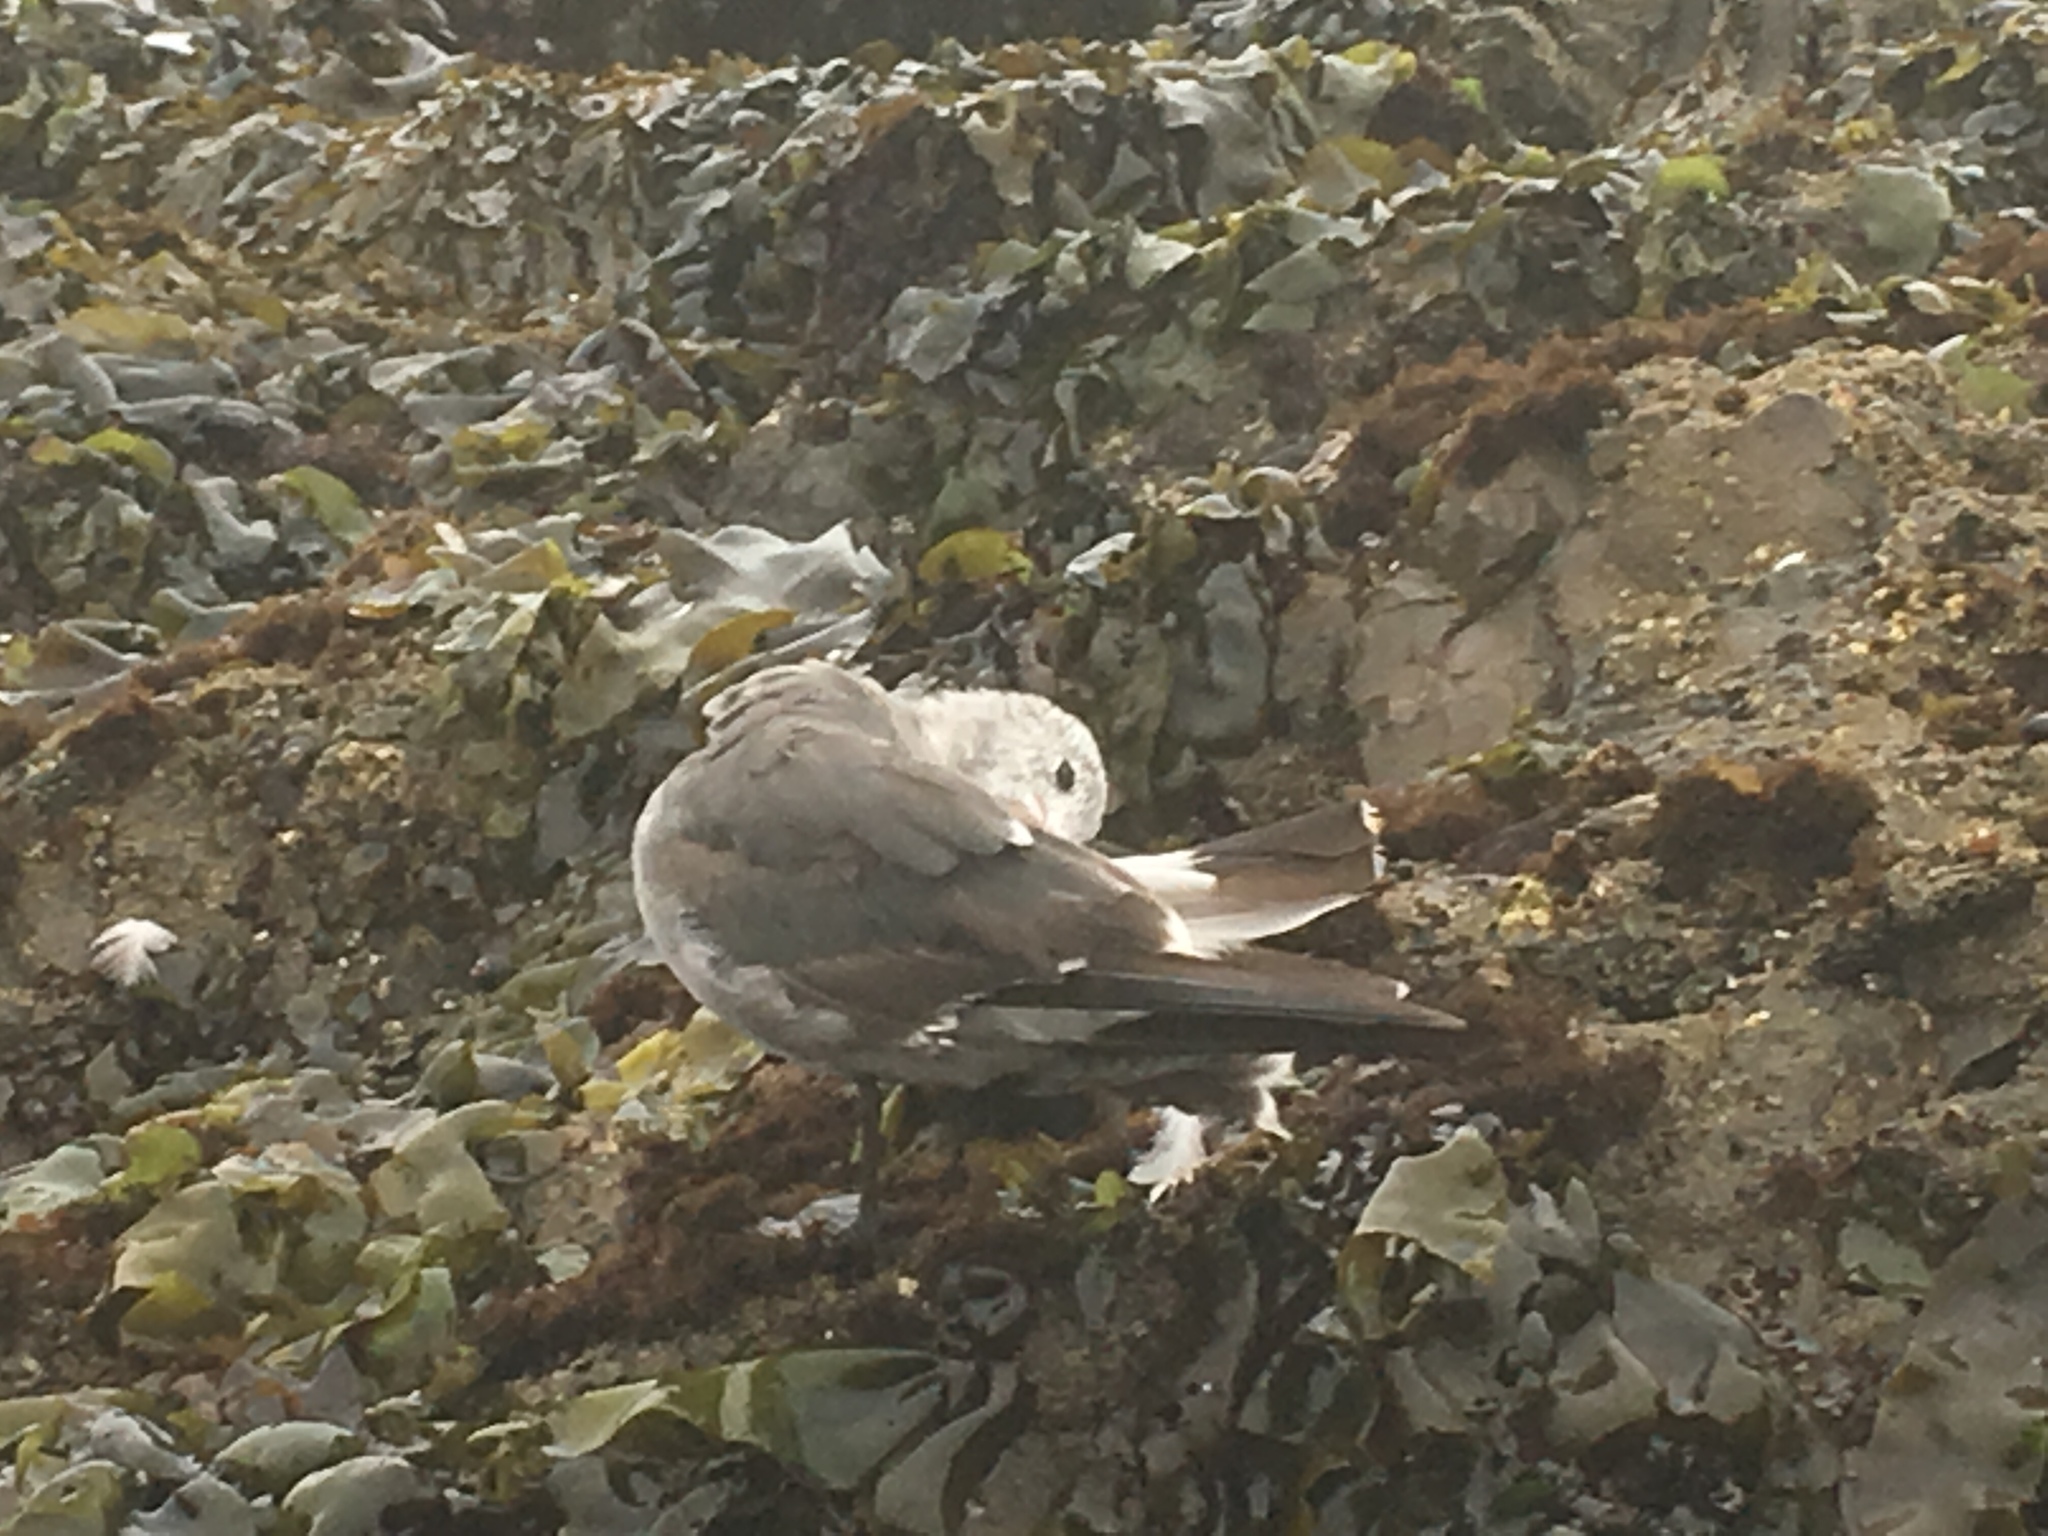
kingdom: Animalia
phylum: Chordata
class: Aves
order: Charadriiformes
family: Laridae
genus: Larus
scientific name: Larus heermanni
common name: Heermann's gull
